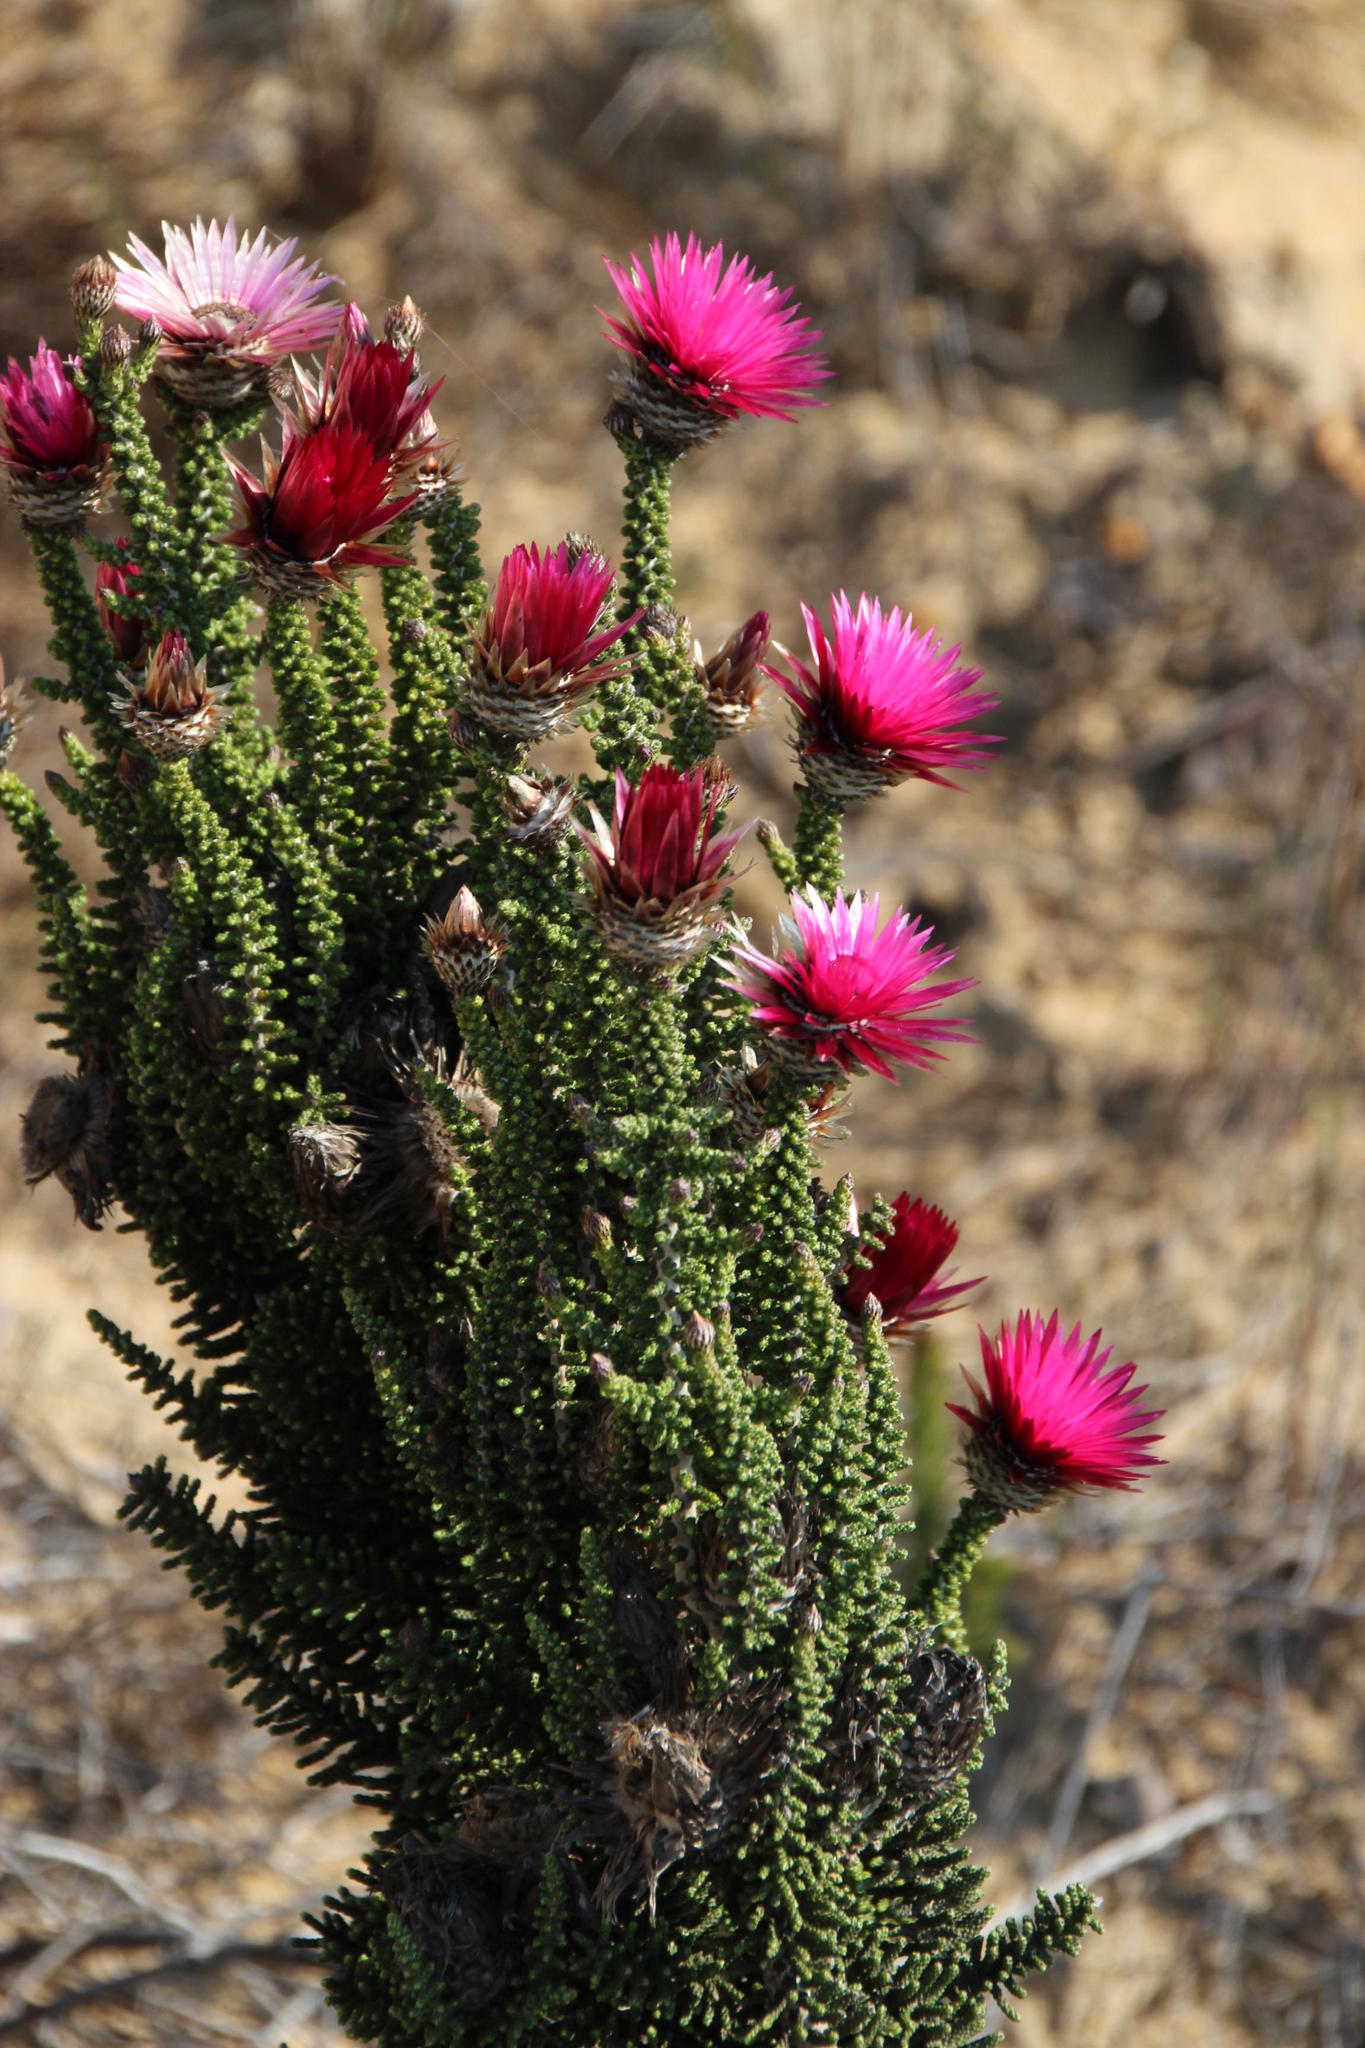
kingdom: Plantae
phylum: Tracheophyta
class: Magnoliopsida
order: Asterales
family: Asteraceae
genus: Phaenocoma
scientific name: Phaenocoma prolifera
